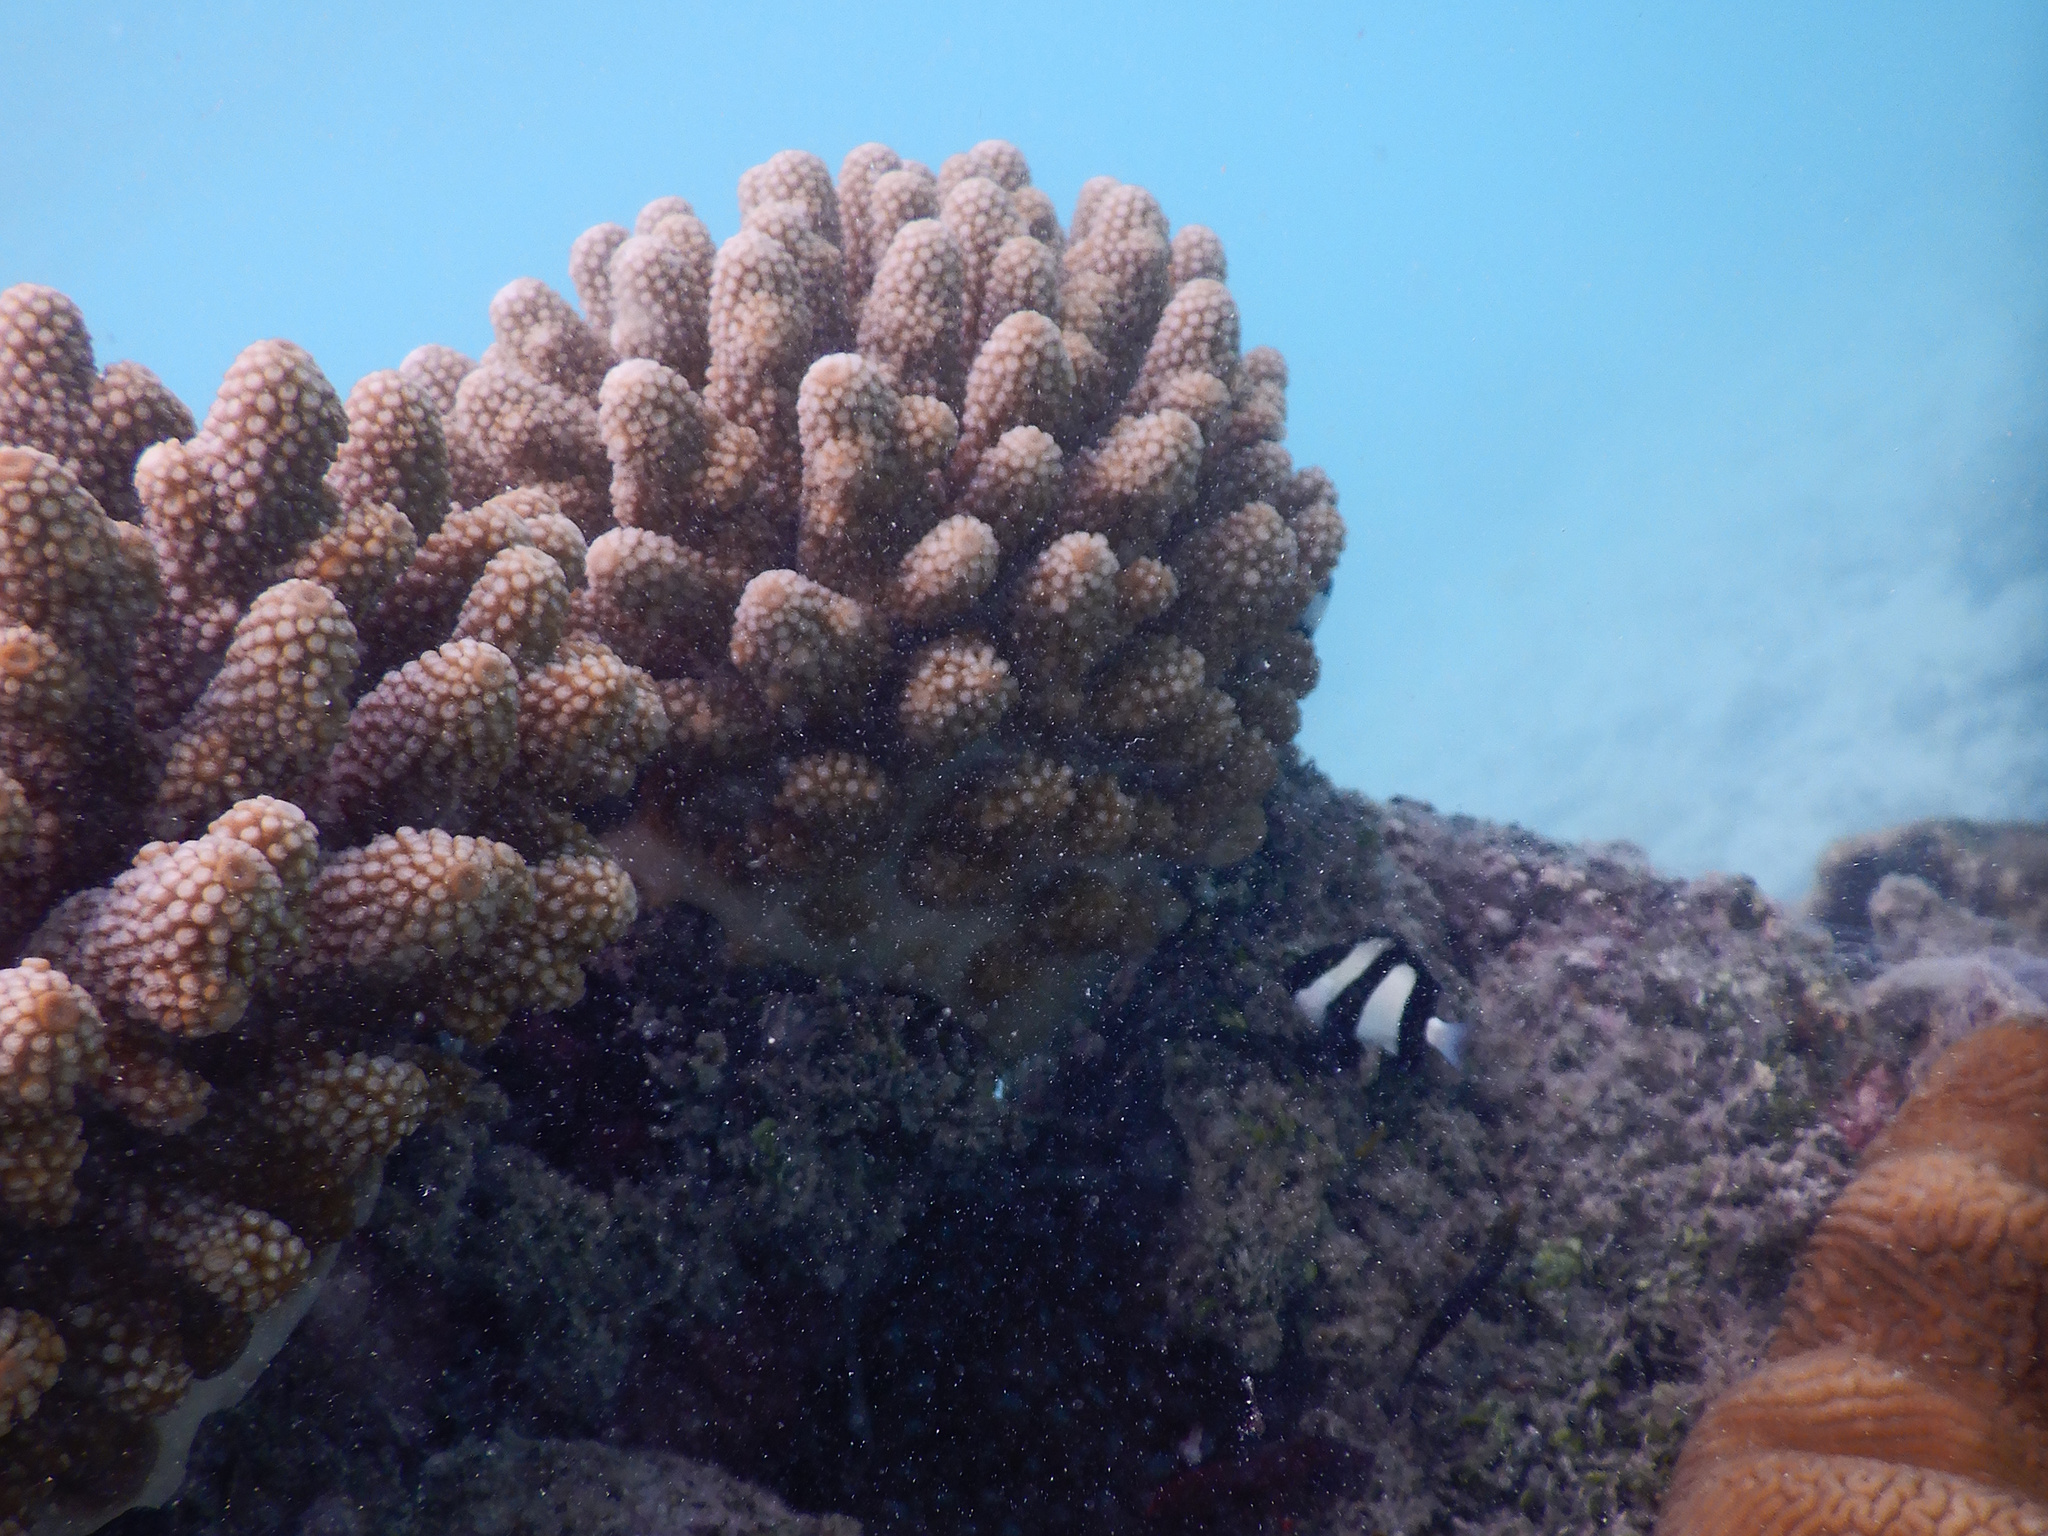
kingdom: Animalia
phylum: Chordata
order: Perciformes
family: Pomacentridae
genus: Dascyllus
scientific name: Dascyllus aruanus
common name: Humbug dascyllus
